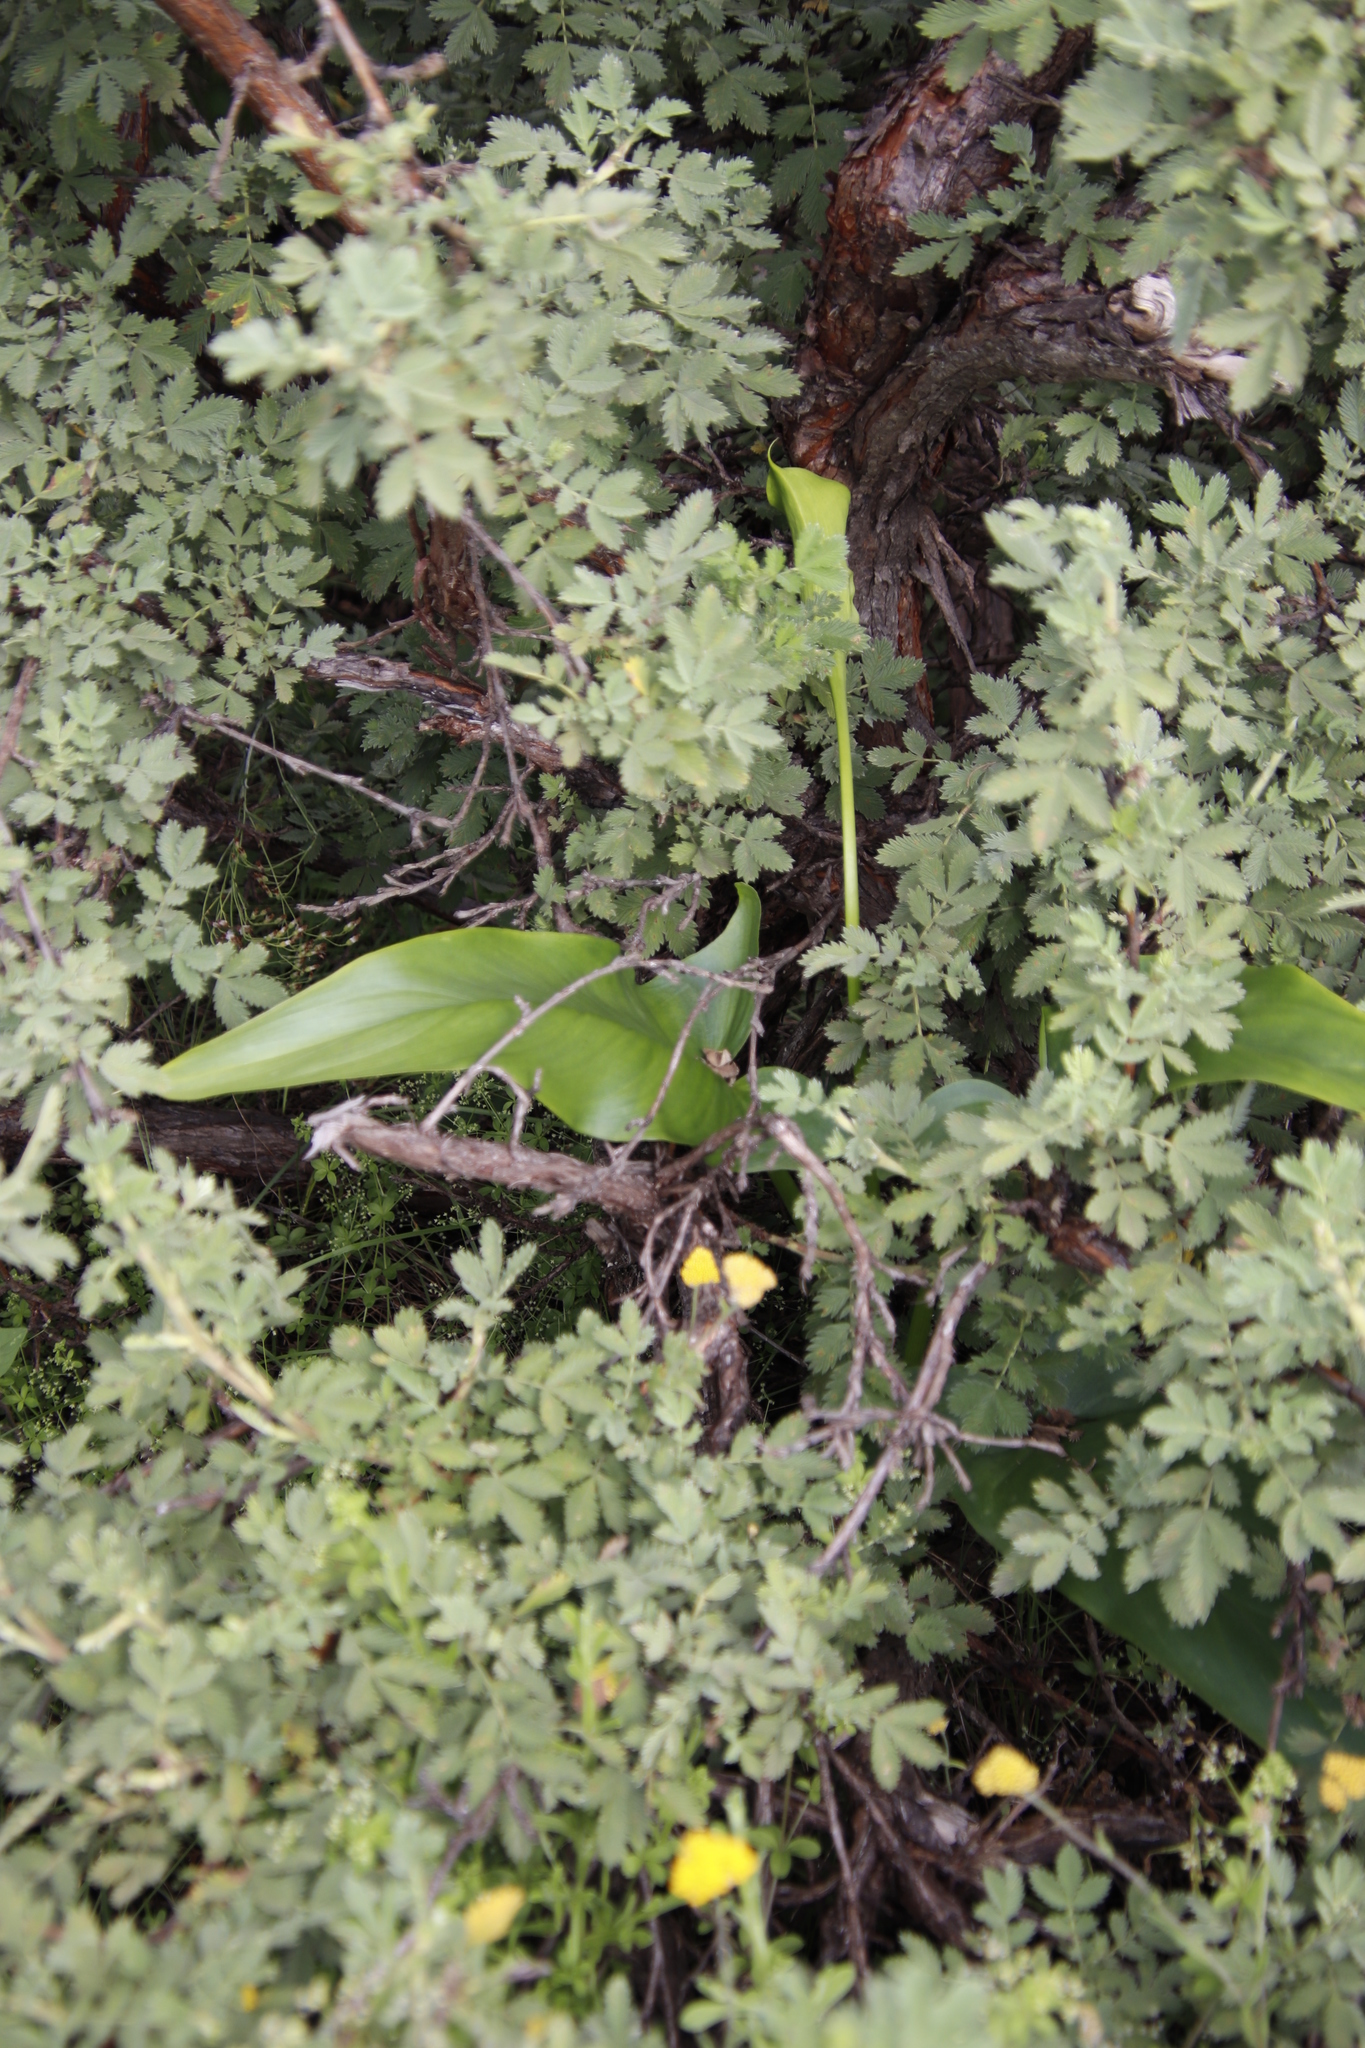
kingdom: Plantae
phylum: Tracheophyta
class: Liliopsida
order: Alismatales
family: Araceae
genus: Zantedeschia
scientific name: Zantedeschia aethiopica
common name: Altar-lily
